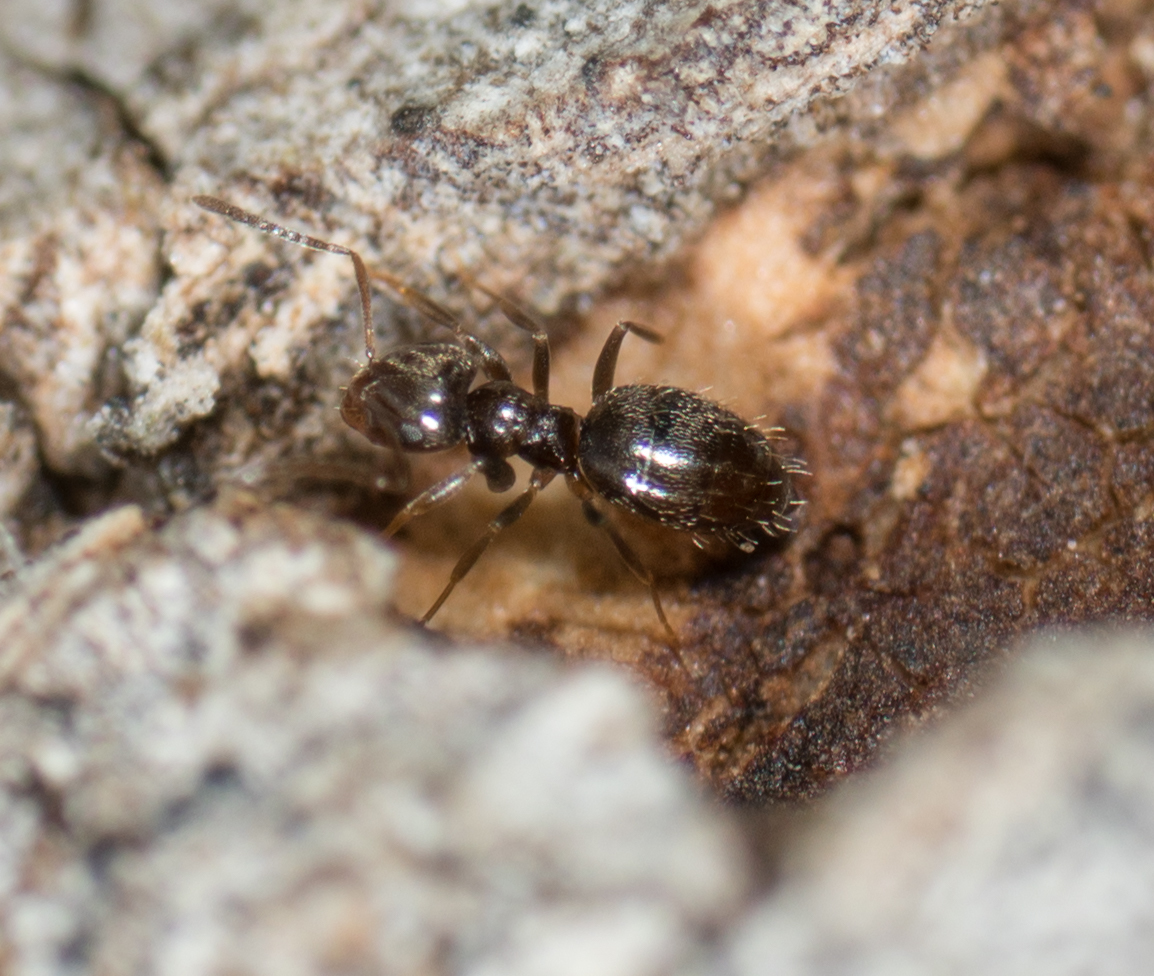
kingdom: Animalia
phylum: Arthropoda
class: Insecta
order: Hymenoptera
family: Formicidae
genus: Brachymyrmex
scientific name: Brachymyrmex patagonicus
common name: Dark rover ant
